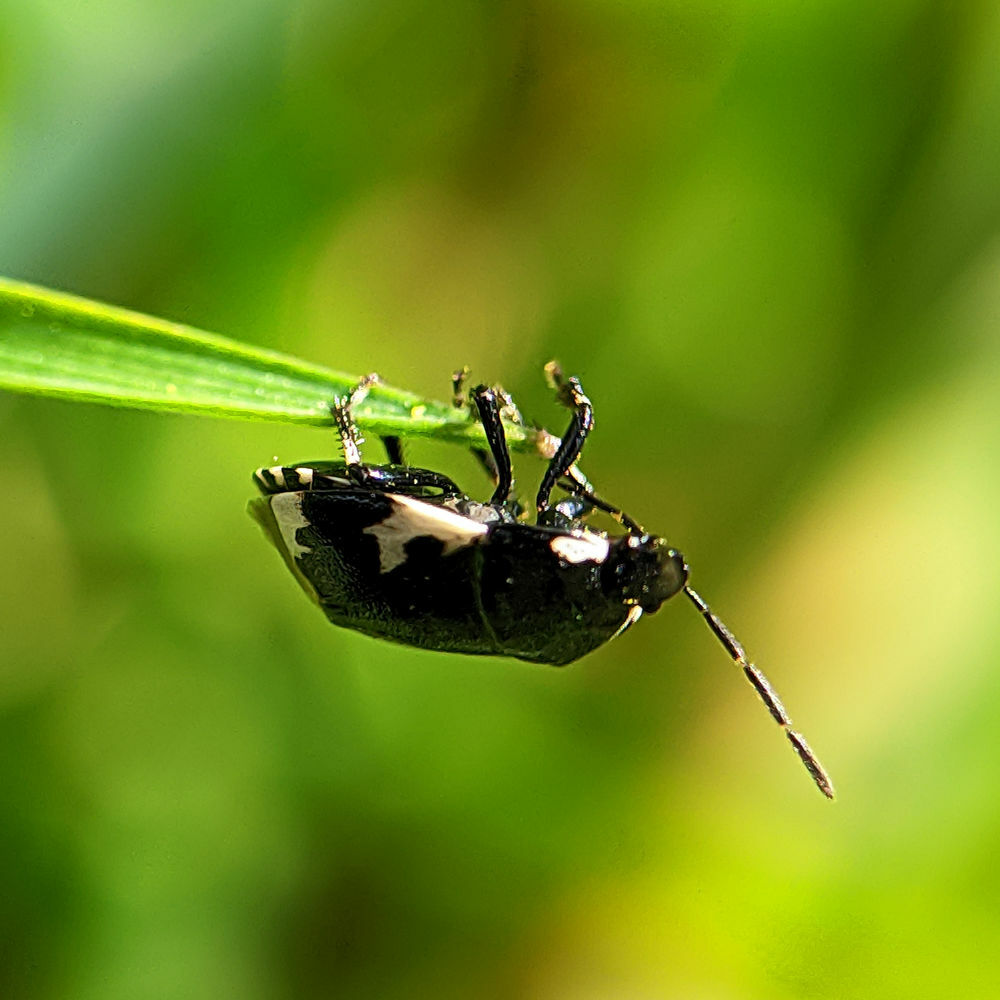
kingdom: Animalia
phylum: Arthropoda
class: Insecta
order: Hemiptera
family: Cydnidae
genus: Tritomegas
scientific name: Tritomegas bicolor
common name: Pied shieldbug
